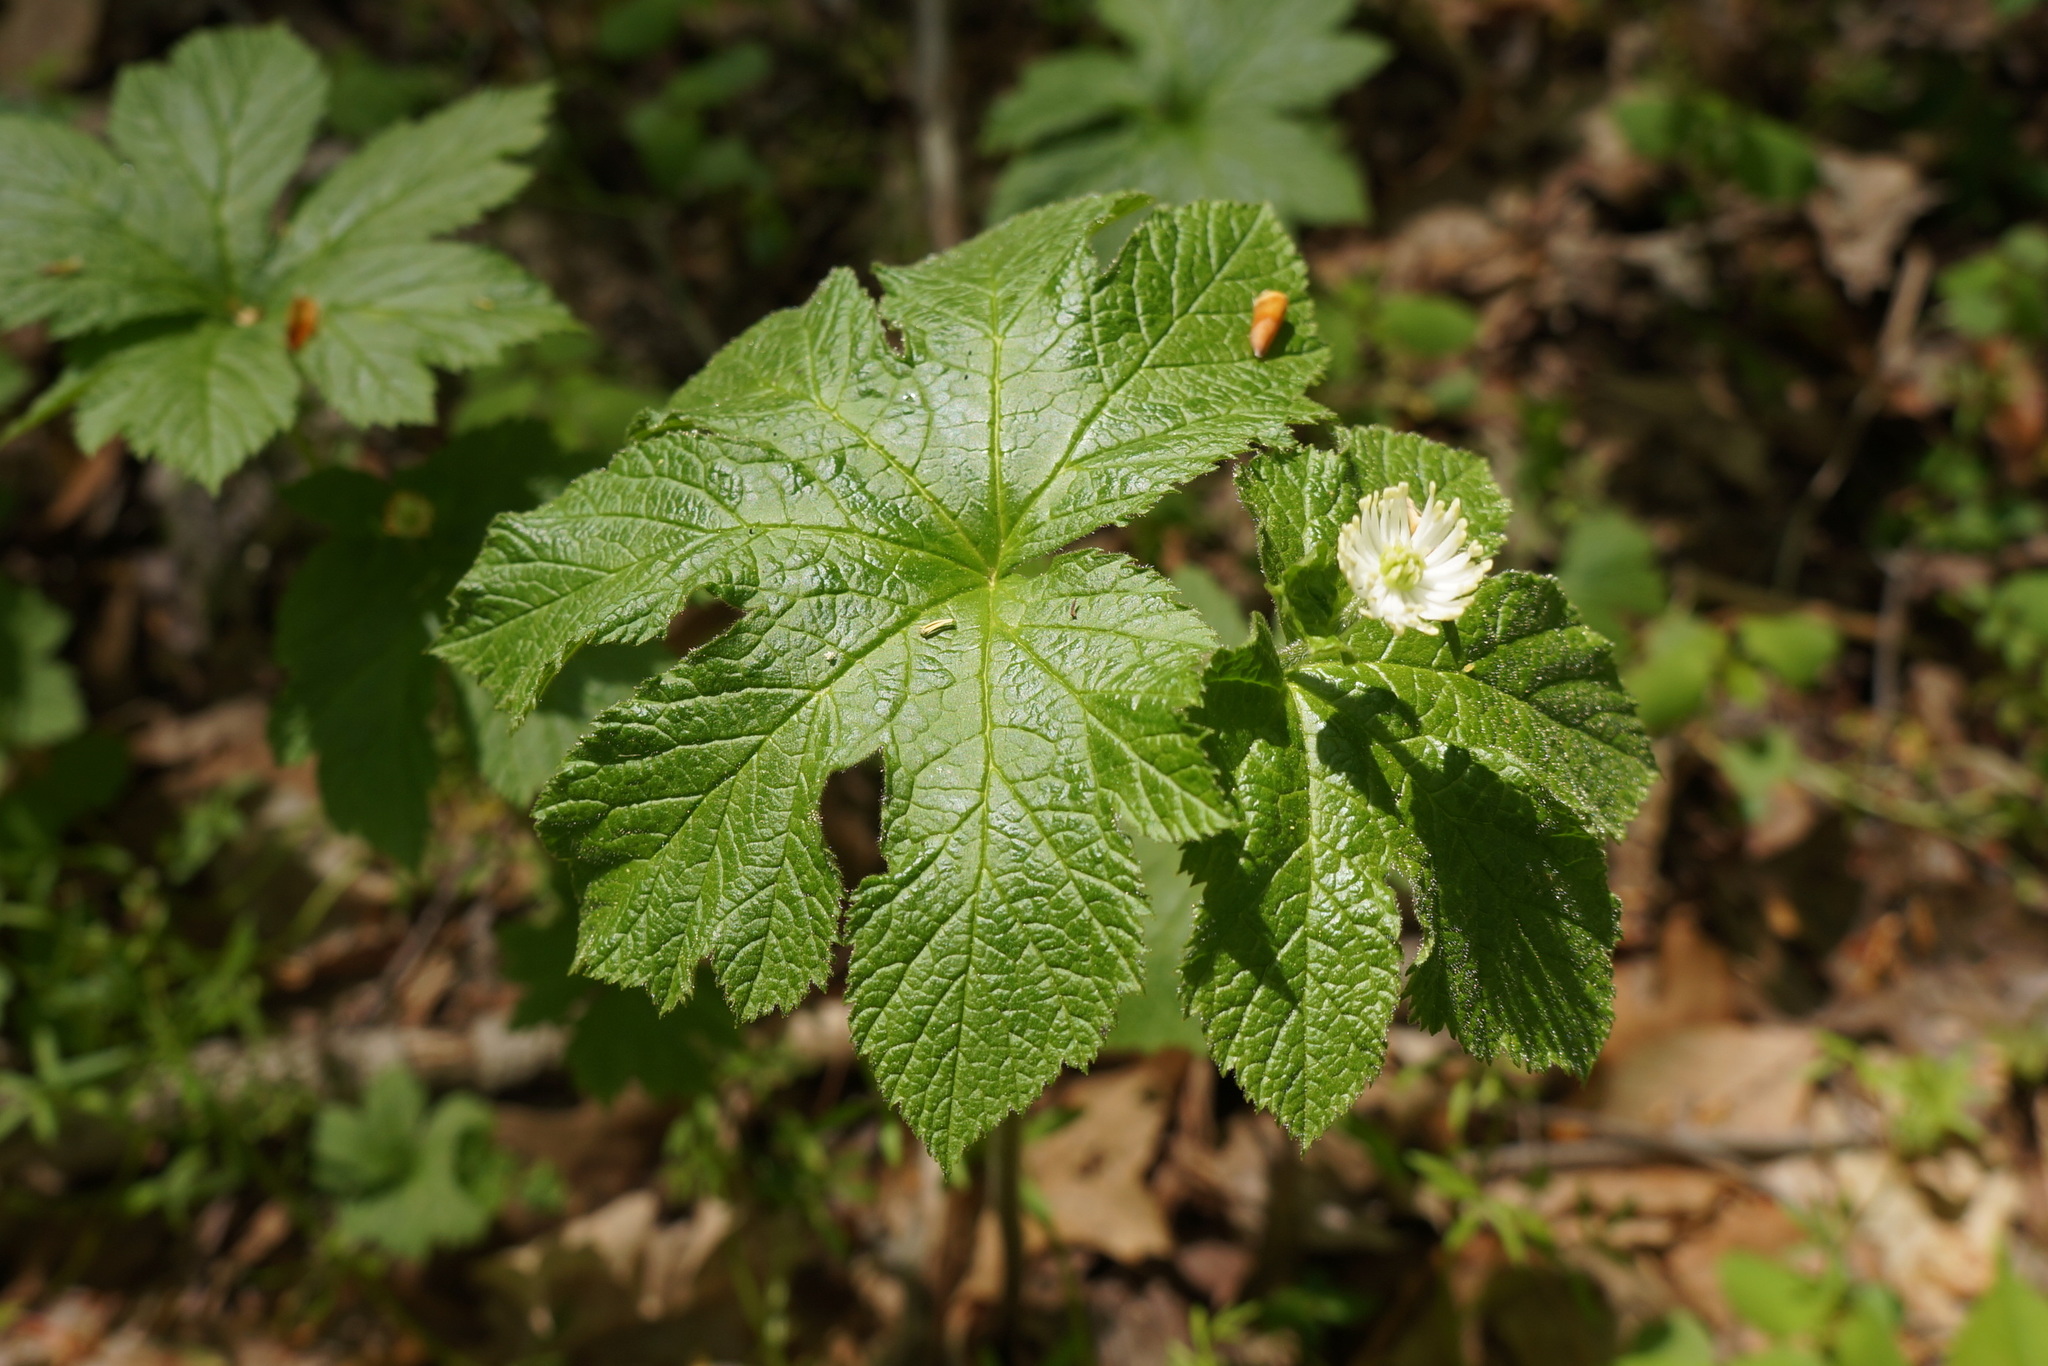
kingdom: Plantae
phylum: Tracheophyta
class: Magnoliopsida
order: Ranunculales
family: Ranunculaceae
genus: Hydrastis
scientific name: Hydrastis canadensis
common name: Goldenseal
